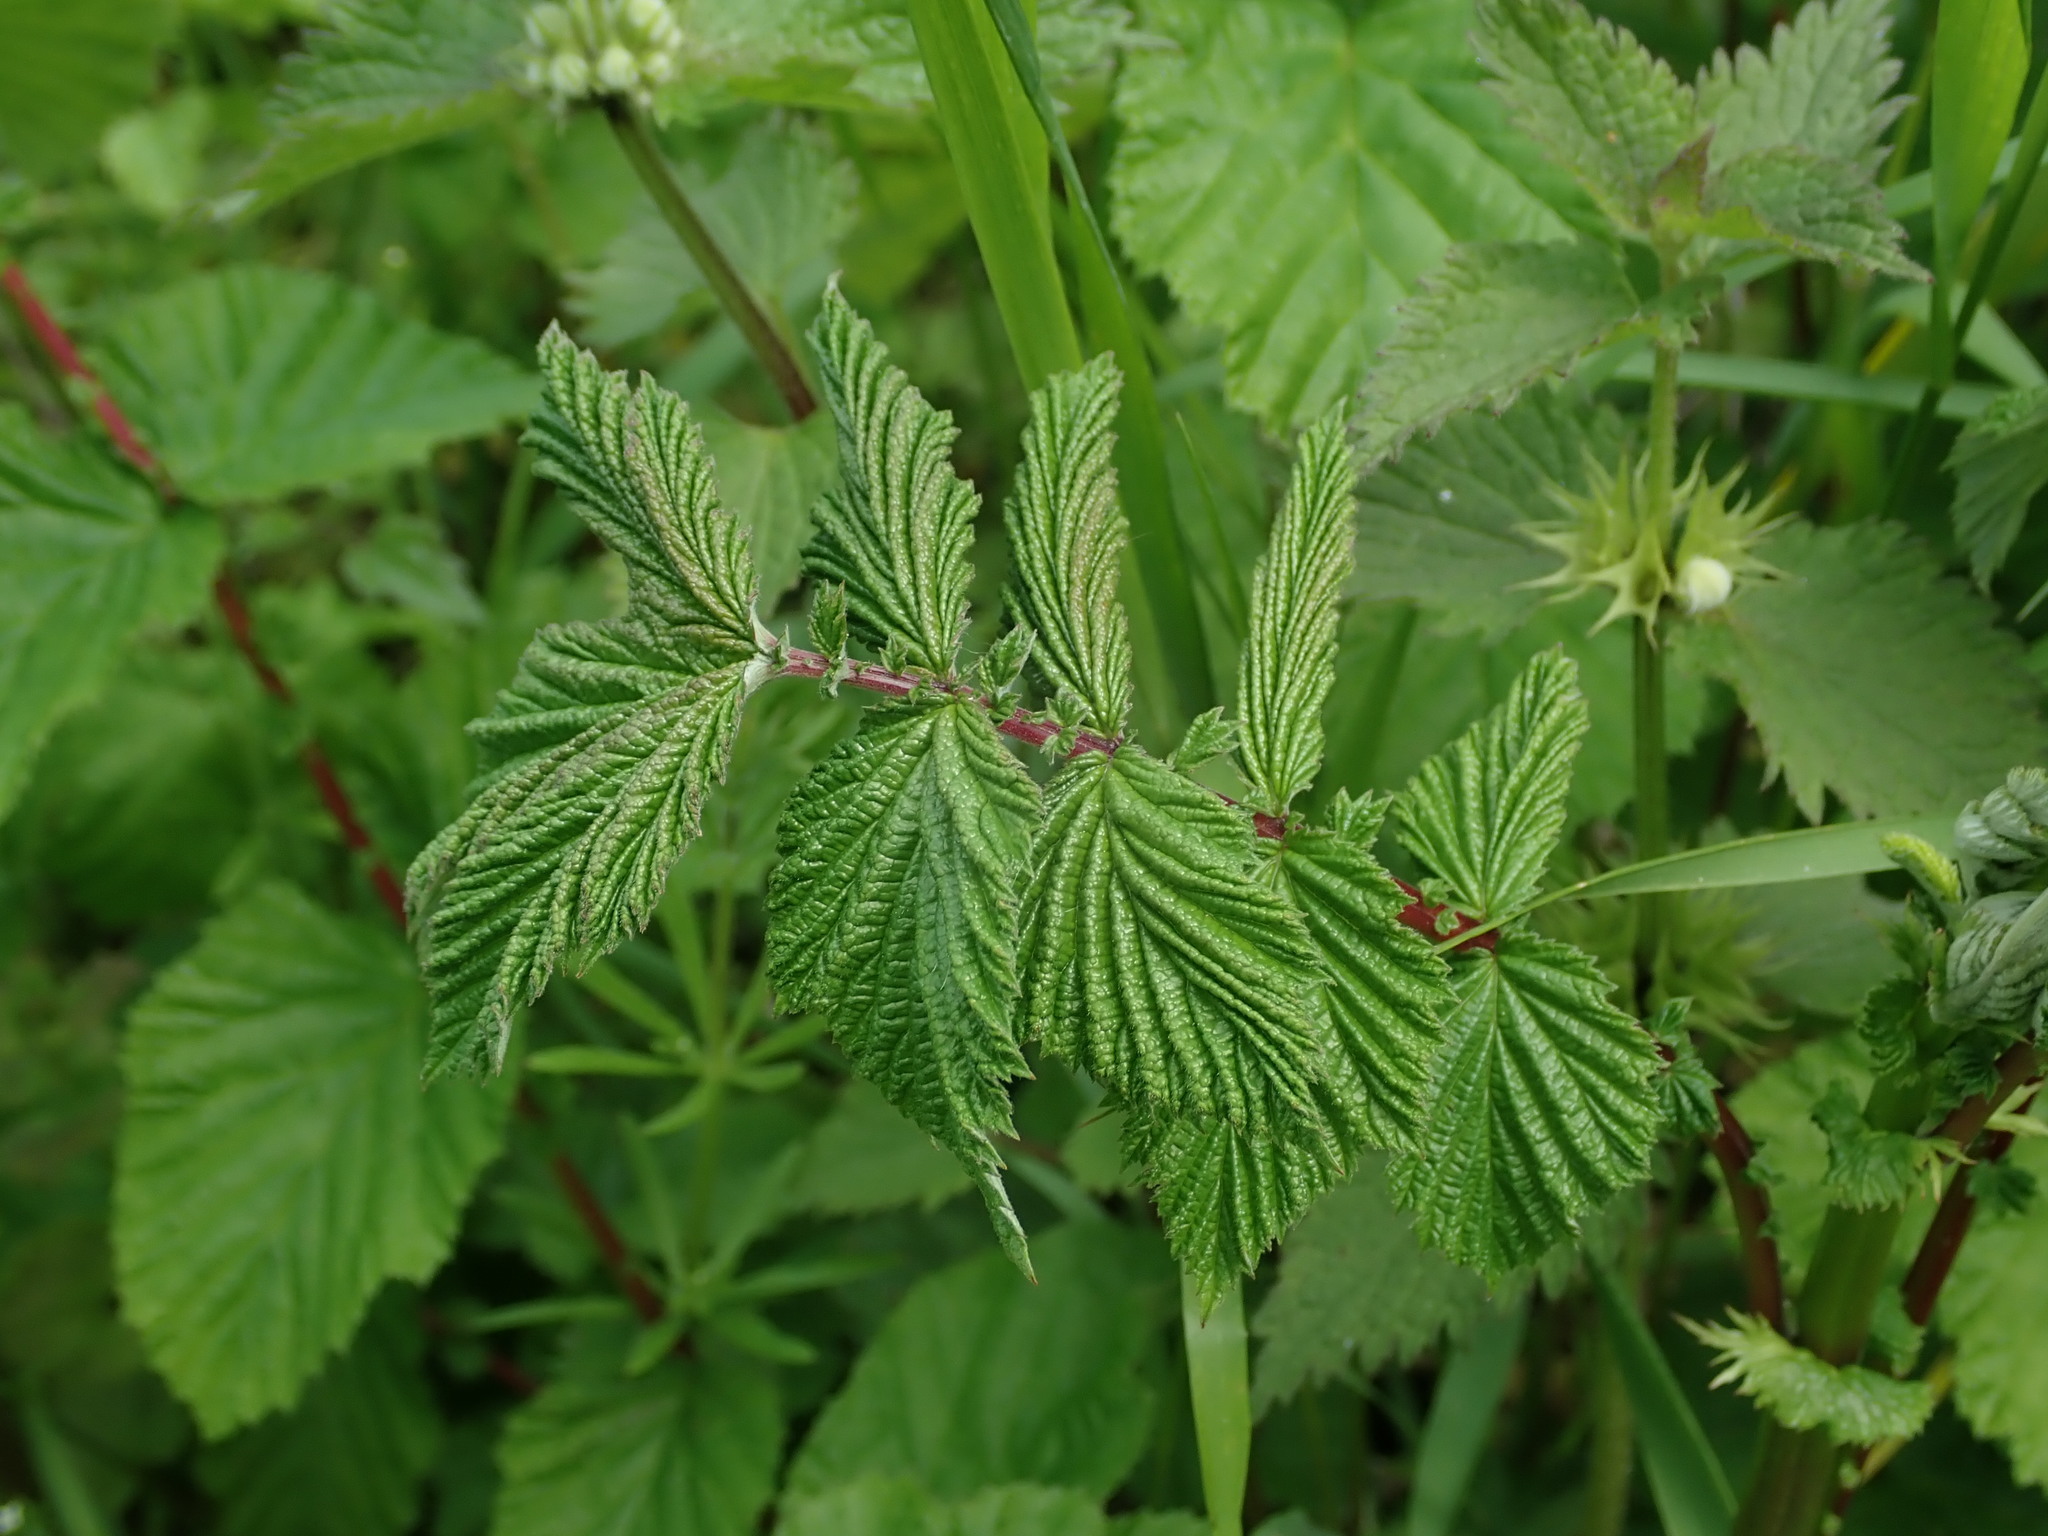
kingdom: Plantae
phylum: Tracheophyta
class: Magnoliopsida
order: Rosales
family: Rosaceae
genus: Filipendula
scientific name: Filipendula ulmaria
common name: Meadowsweet
